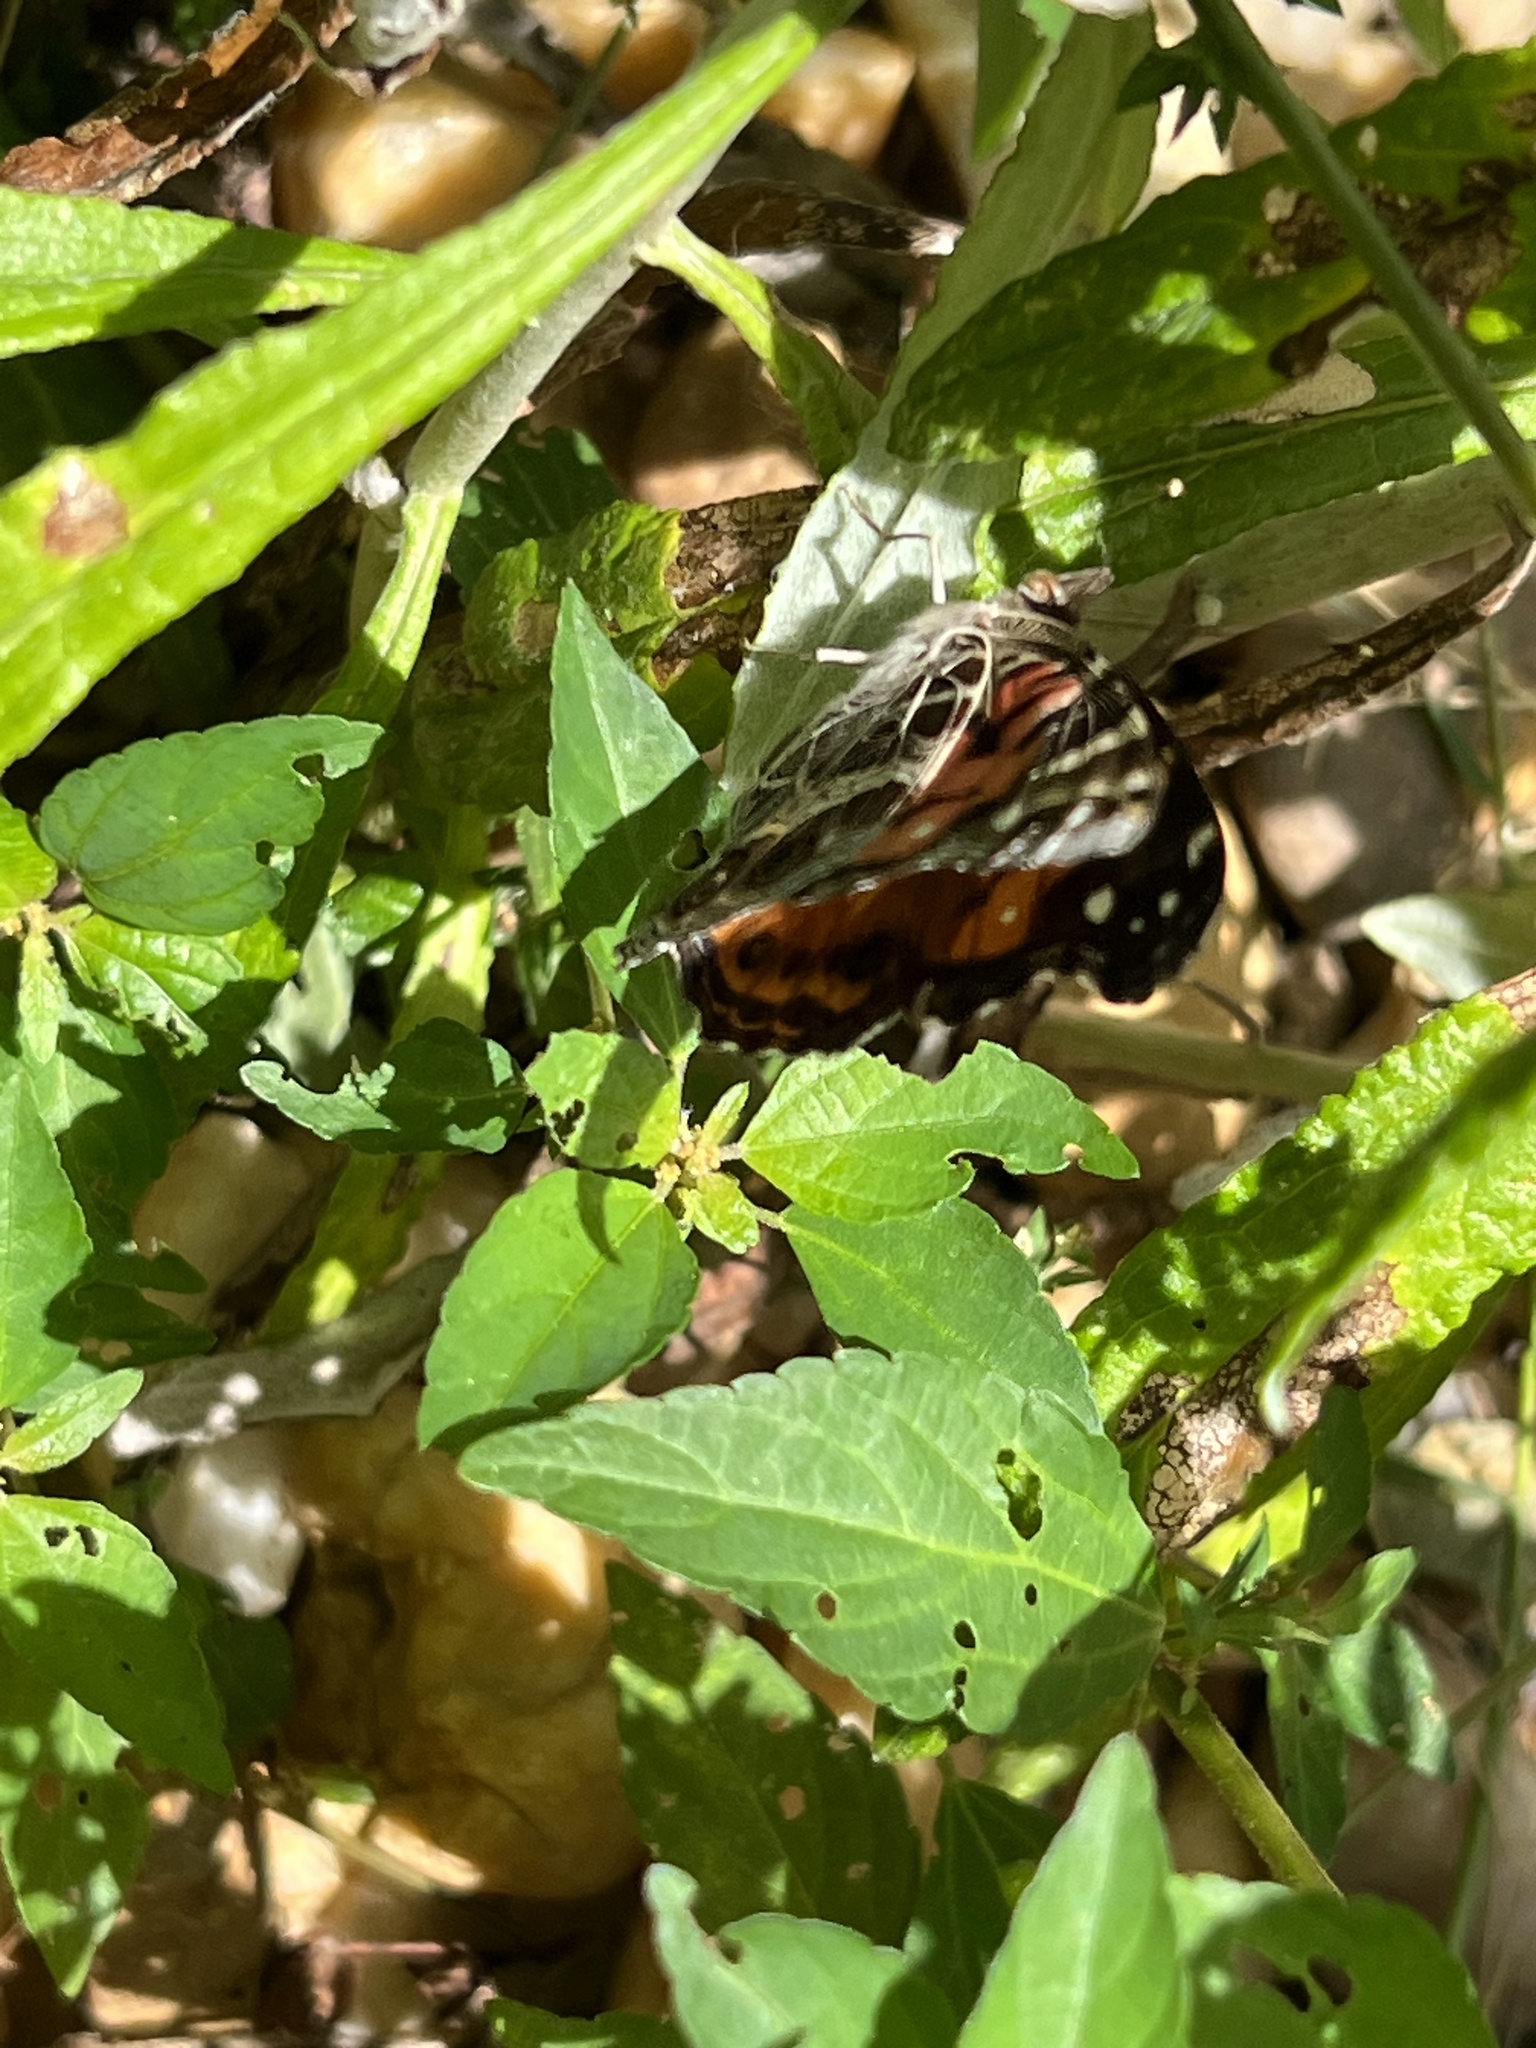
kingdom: Animalia
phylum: Arthropoda
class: Insecta
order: Lepidoptera
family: Nymphalidae
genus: Vanessa
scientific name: Vanessa virginiensis
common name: American lady
